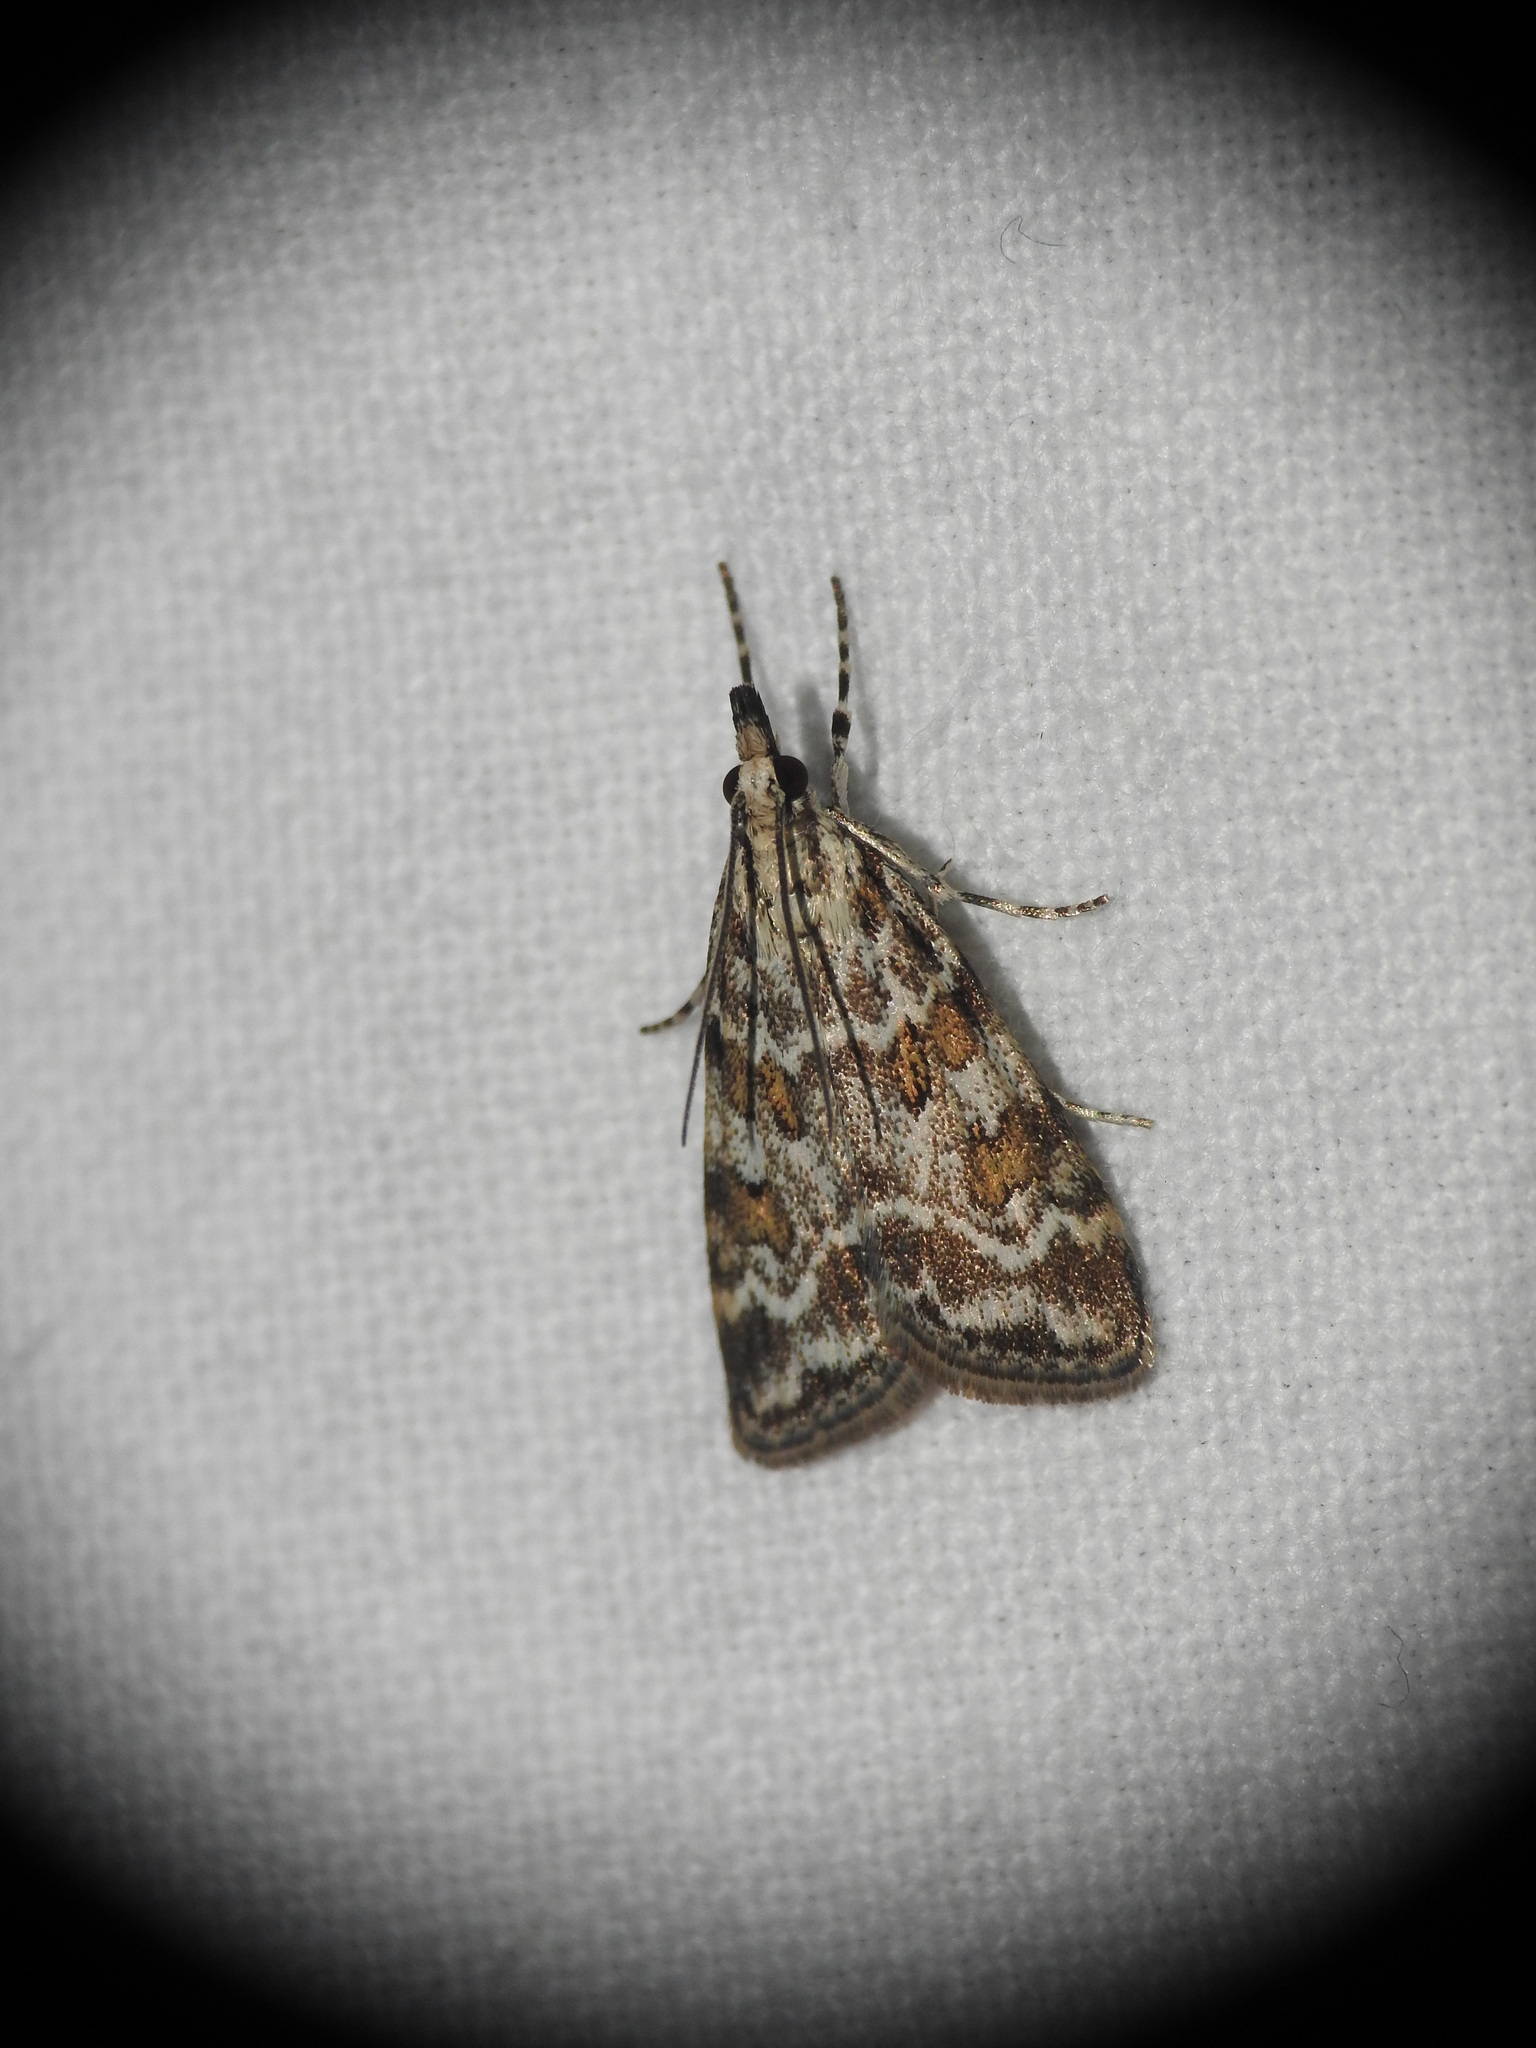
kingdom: Animalia
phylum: Arthropoda
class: Insecta
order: Lepidoptera
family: Crambidae
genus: Scoparia
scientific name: Scoparia pyralella
